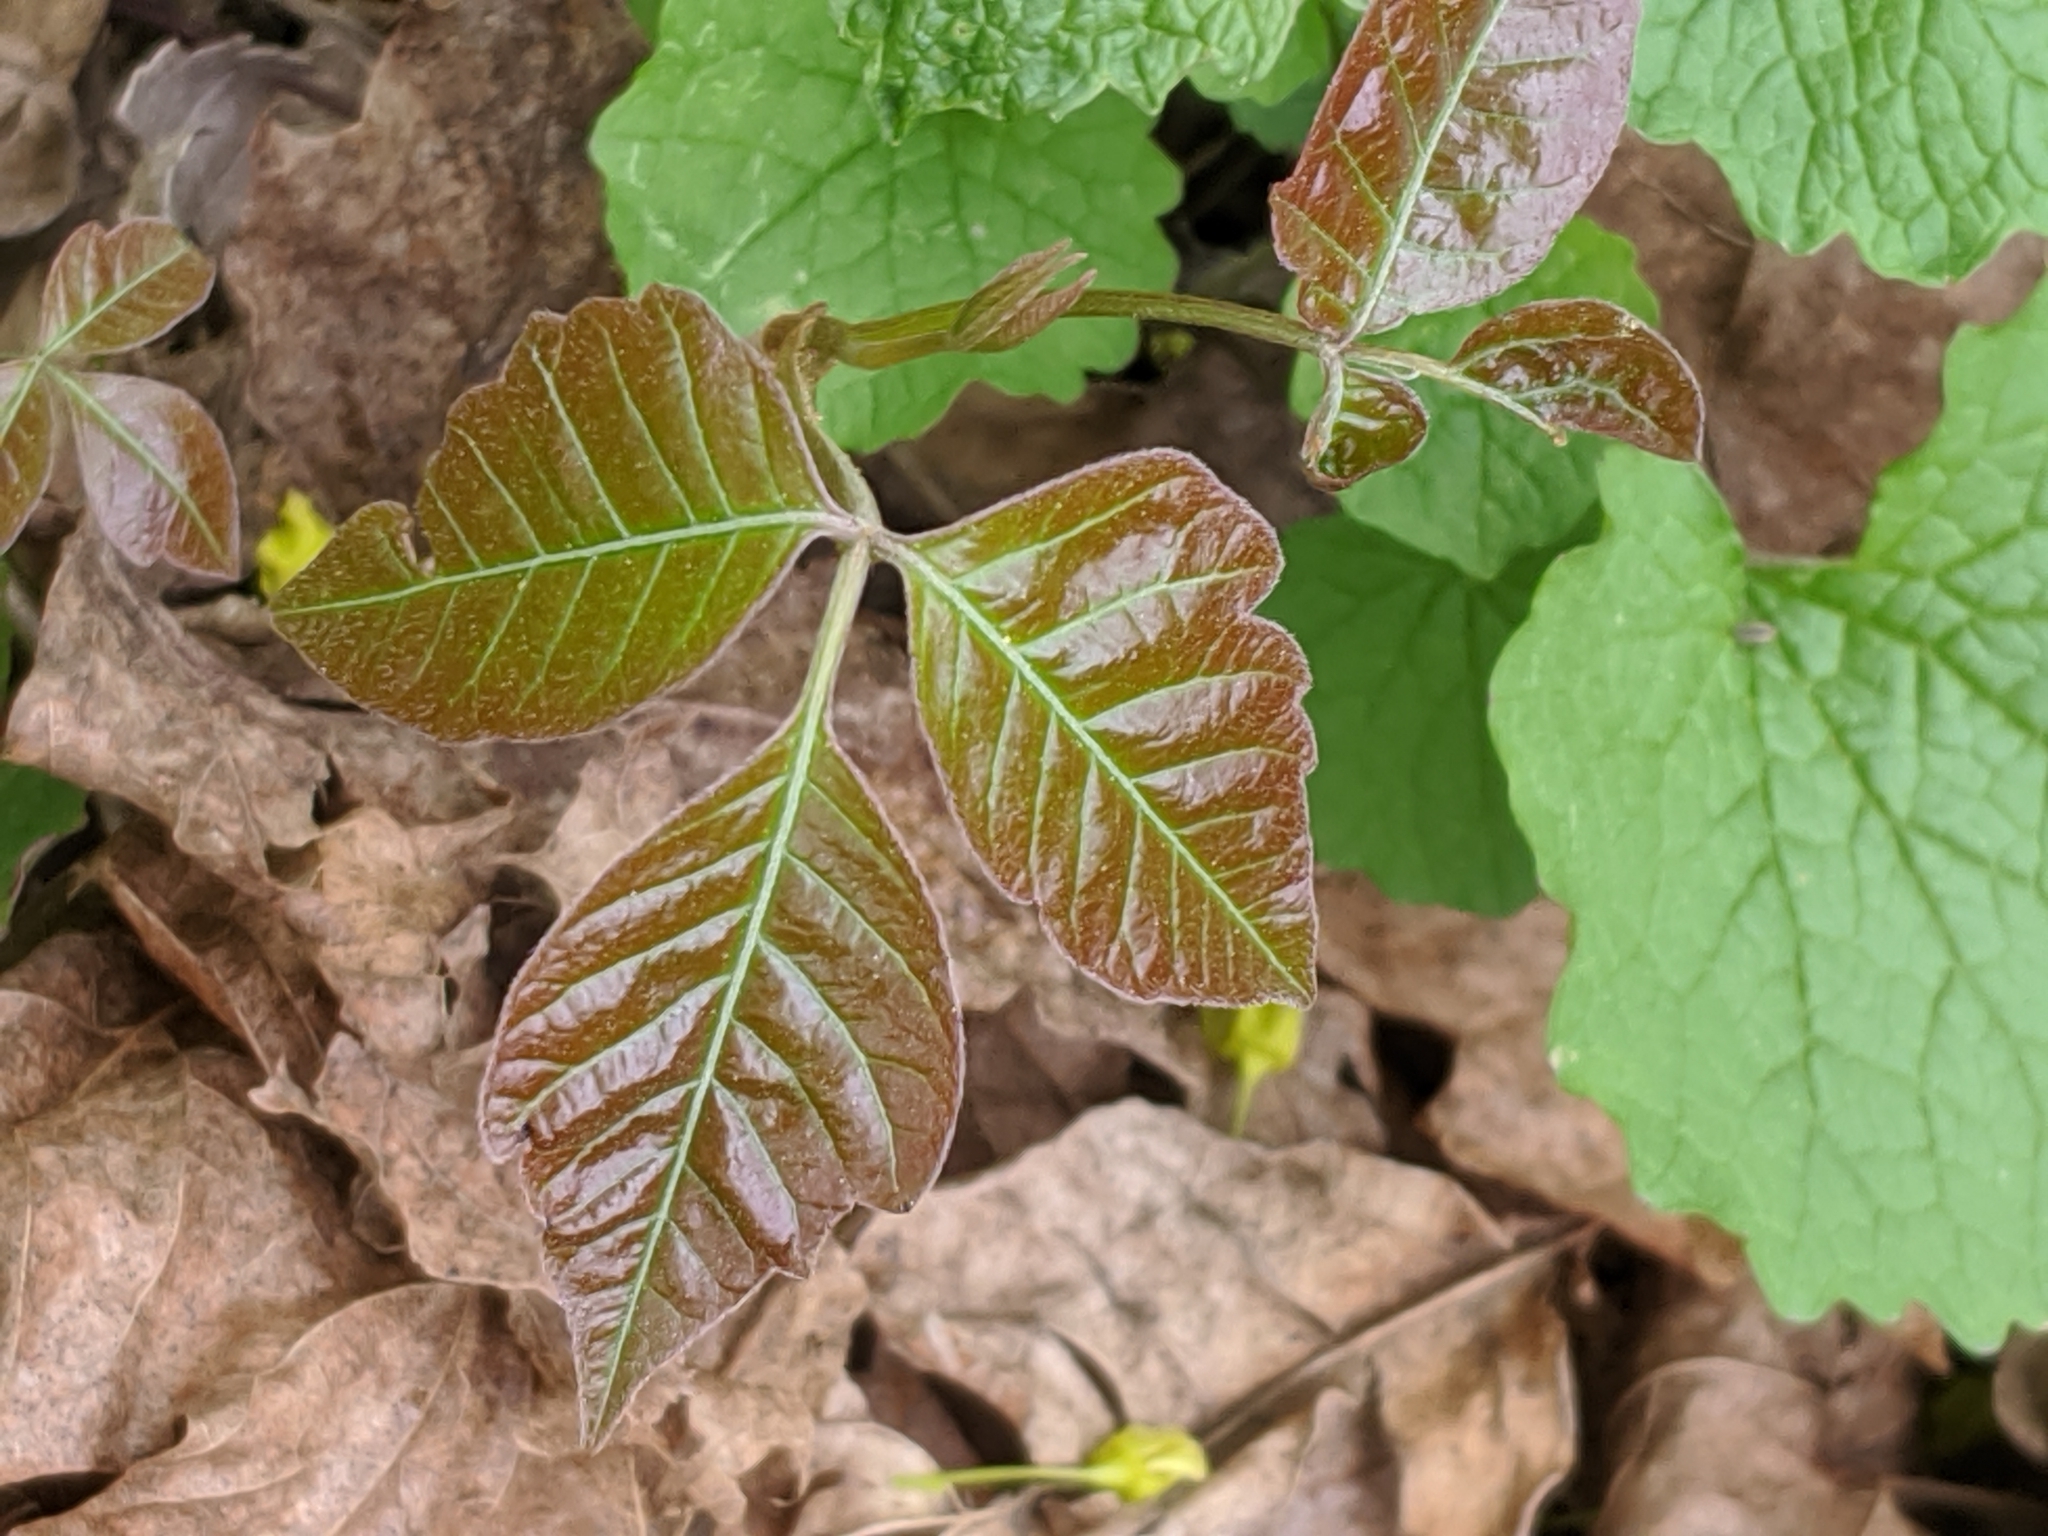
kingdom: Plantae
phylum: Tracheophyta
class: Magnoliopsida
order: Sapindales
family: Anacardiaceae
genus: Toxicodendron
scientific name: Toxicodendron radicans
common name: Poison ivy
